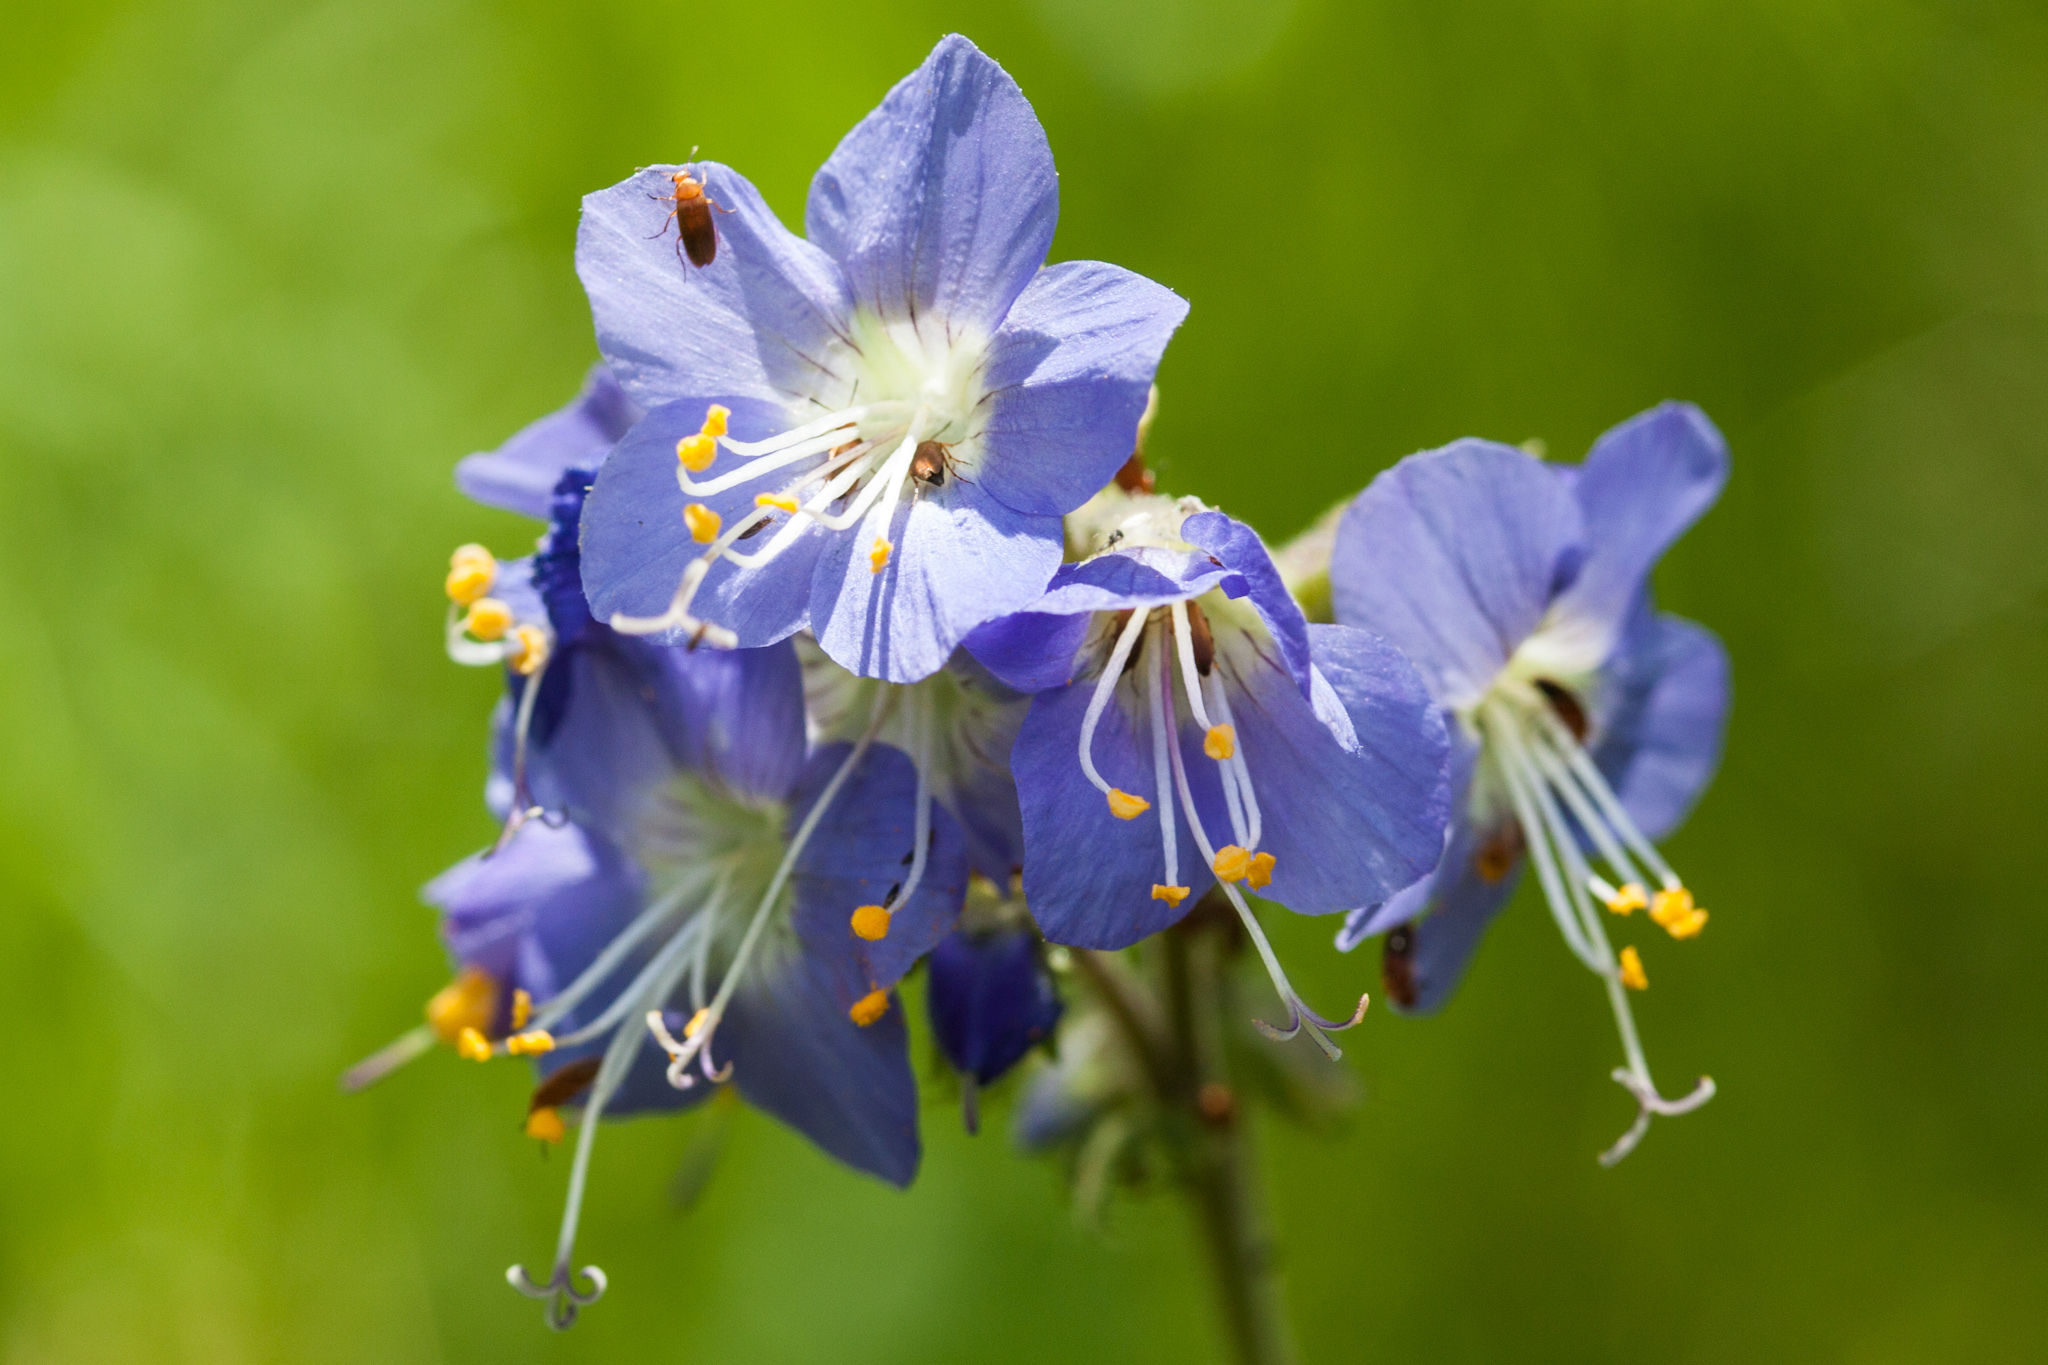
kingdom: Plantae
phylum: Tracheophyta
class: Magnoliopsida
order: Ericales
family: Polemoniaceae
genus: Polemonium
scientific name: Polemonium occidentale
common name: Western jacob's-ladder
